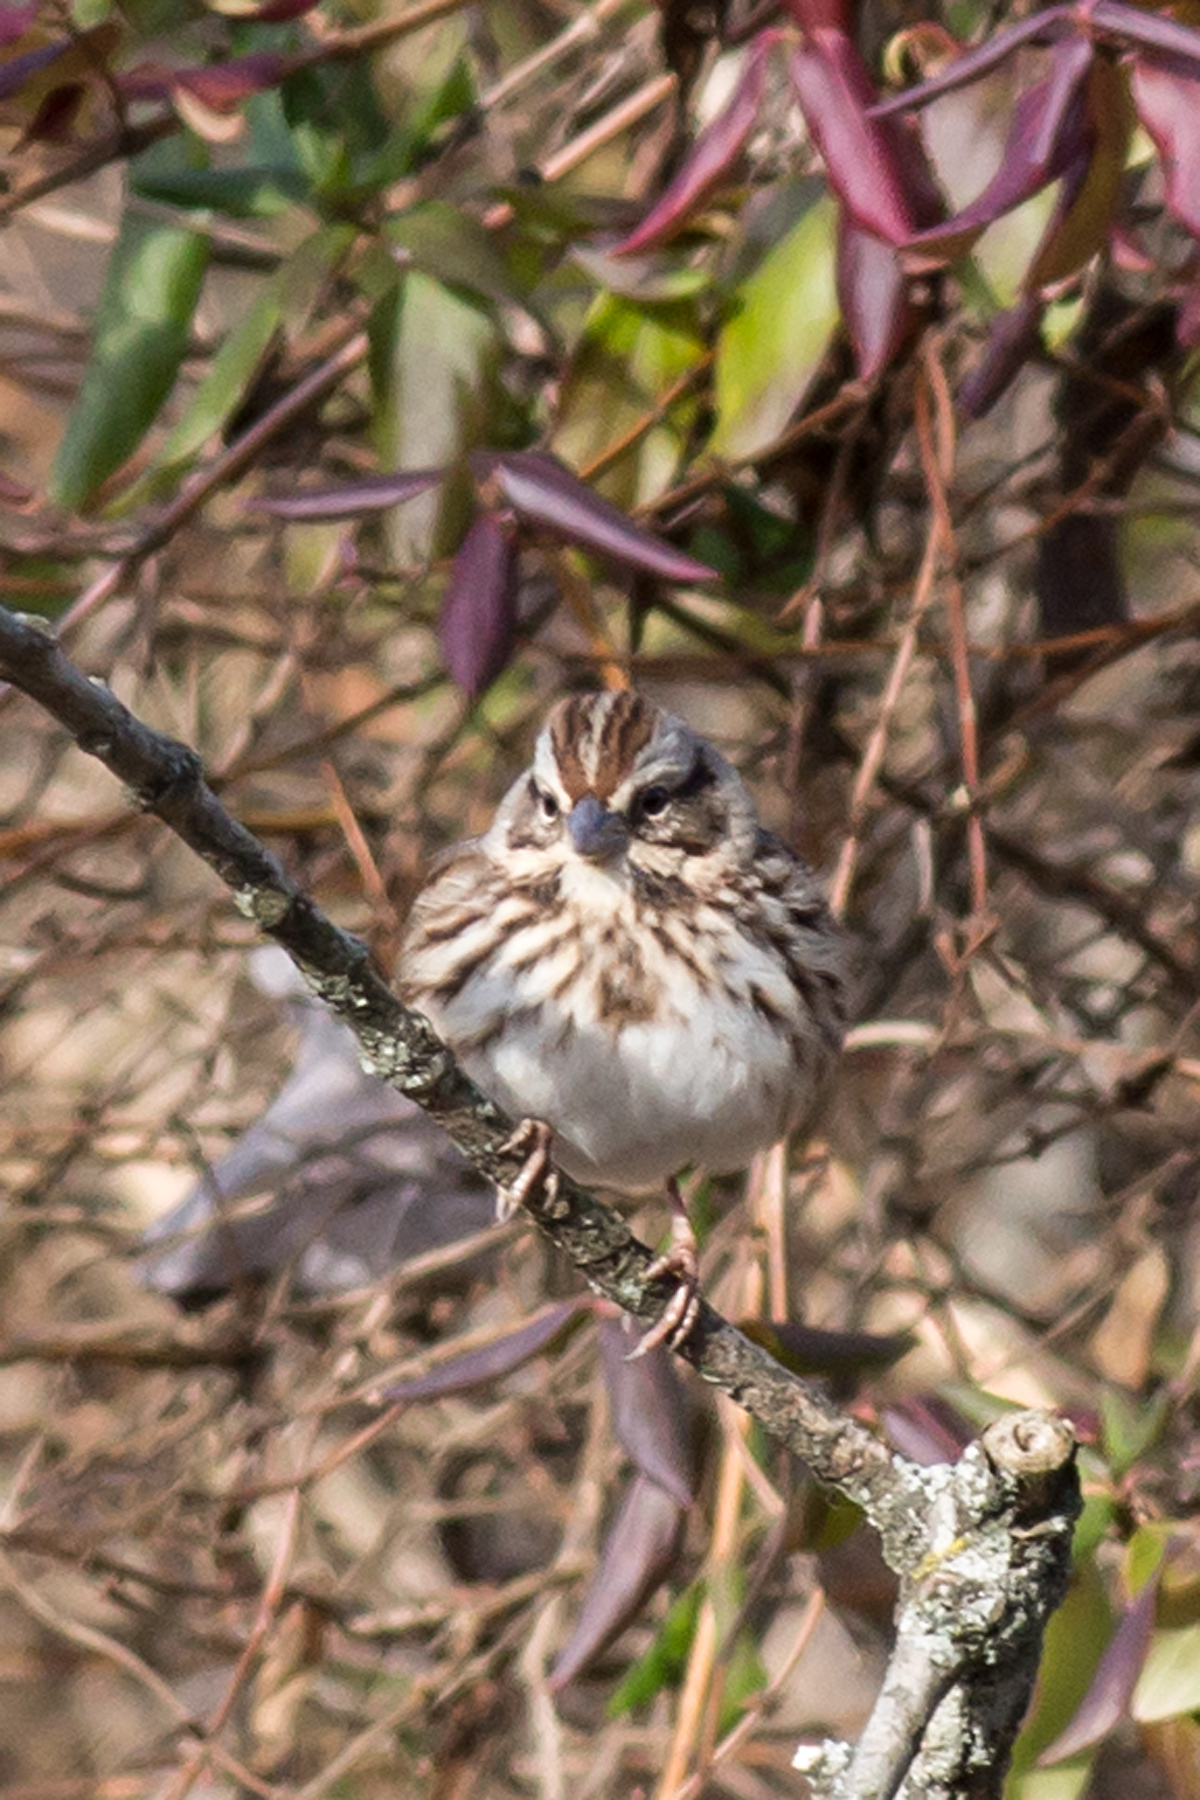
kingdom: Animalia
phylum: Chordata
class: Aves
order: Passeriformes
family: Passerellidae
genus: Melospiza
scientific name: Melospiza melodia
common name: Song sparrow
